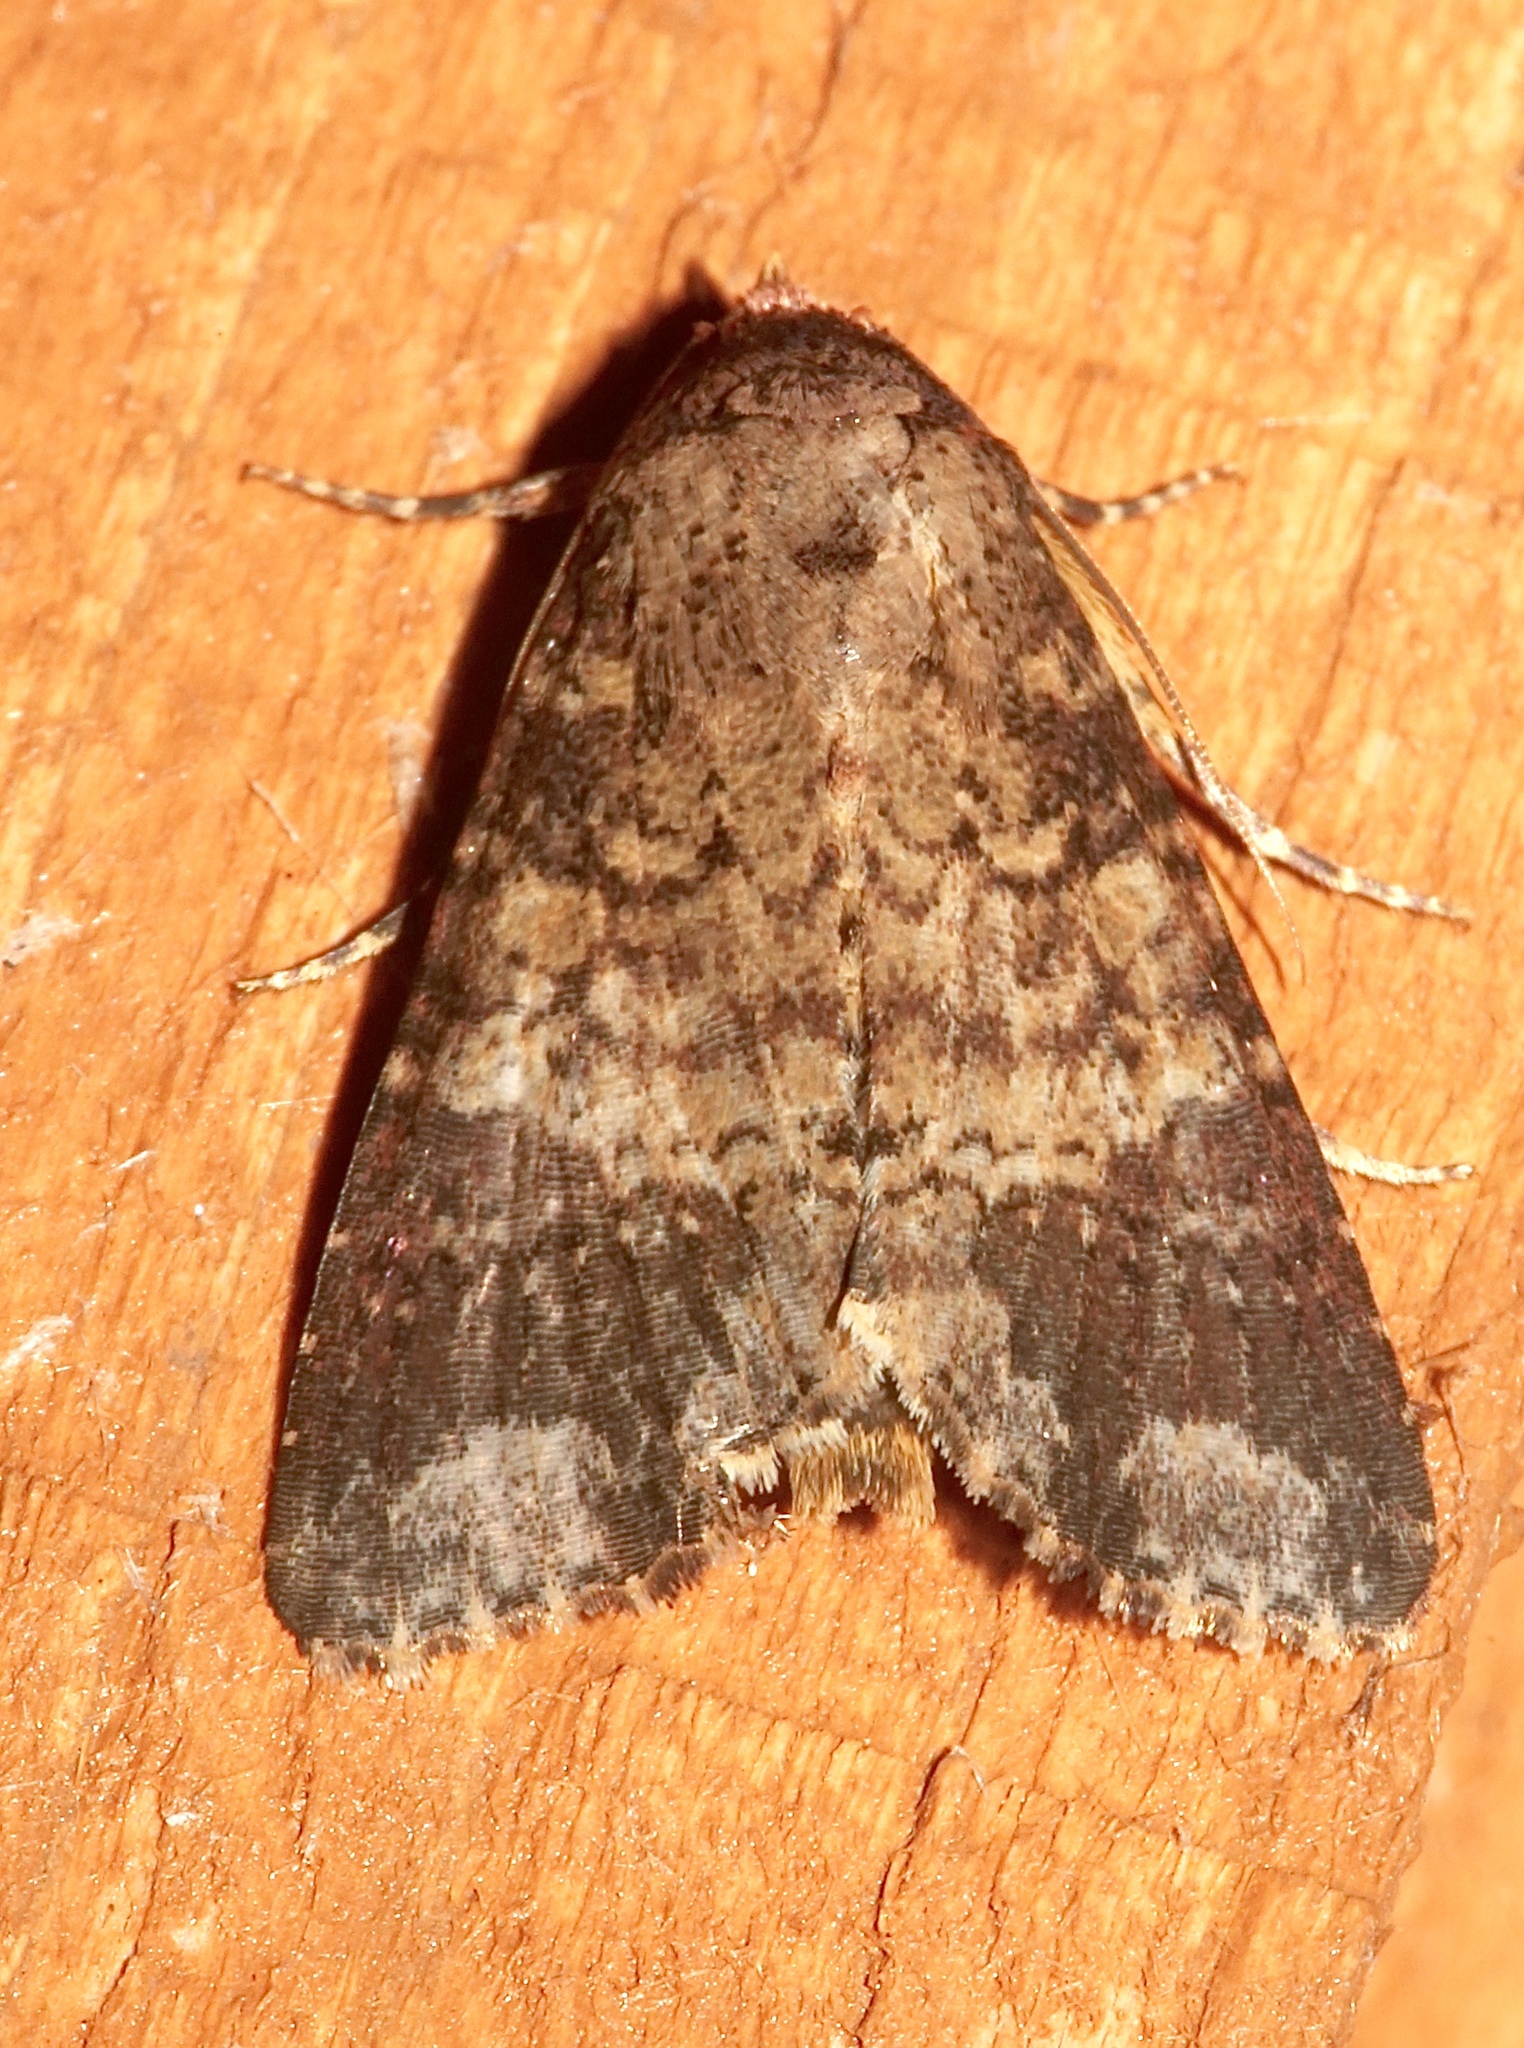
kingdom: Animalia
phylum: Arthropoda
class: Insecta
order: Lepidoptera
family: Noctuidae
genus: Condica
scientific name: Condica cupentia
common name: Splotched groundling
